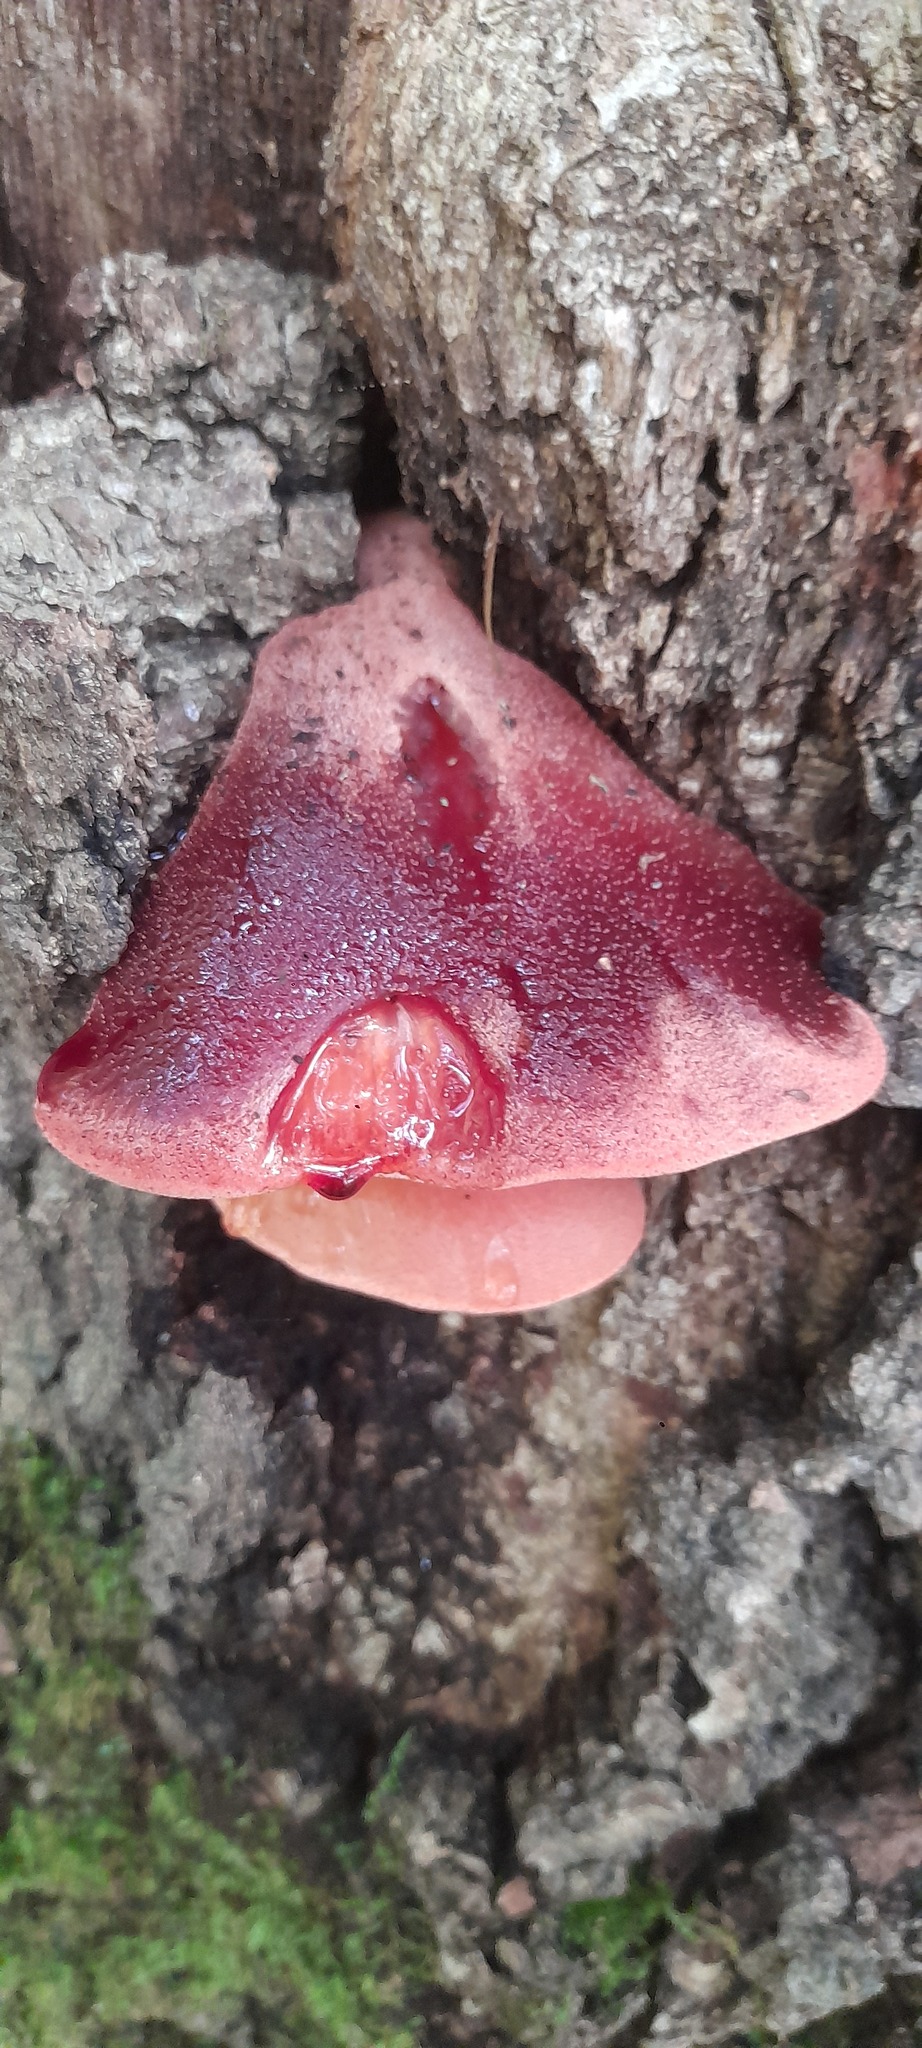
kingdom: Fungi
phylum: Basidiomycota
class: Agaricomycetes
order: Agaricales
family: Fistulinaceae
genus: Fistulina
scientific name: Fistulina hepatica
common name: Beef-steak fungus
